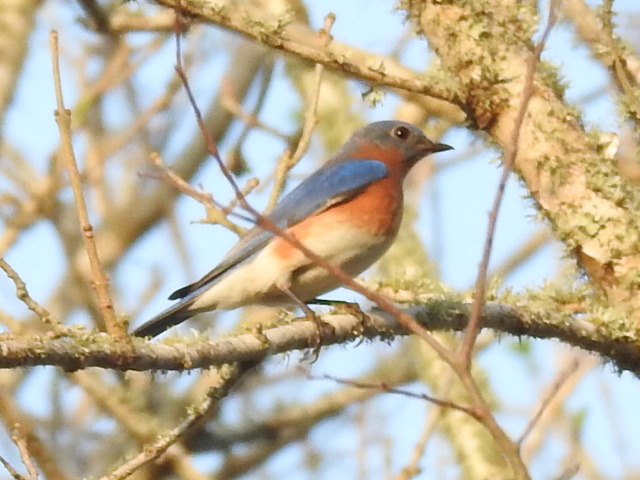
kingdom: Animalia
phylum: Chordata
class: Aves
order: Passeriformes
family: Turdidae
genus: Sialia
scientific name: Sialia sialis
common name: Eastern bluebird
